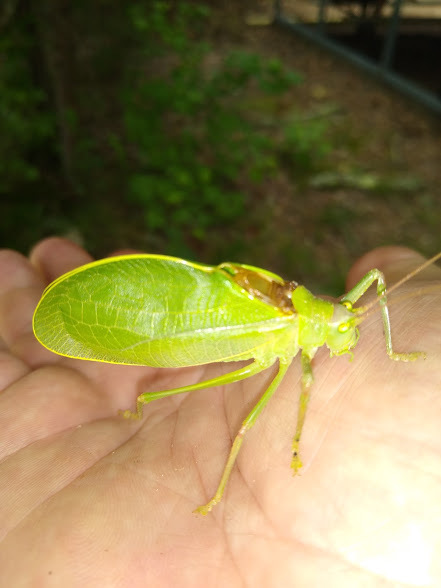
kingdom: Animalia
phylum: Arthropoda
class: Insecta
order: Orthoptera
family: Tettigoniidae
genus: Pterophylla
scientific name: Pterophylla camellifolia
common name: Common true katydid
